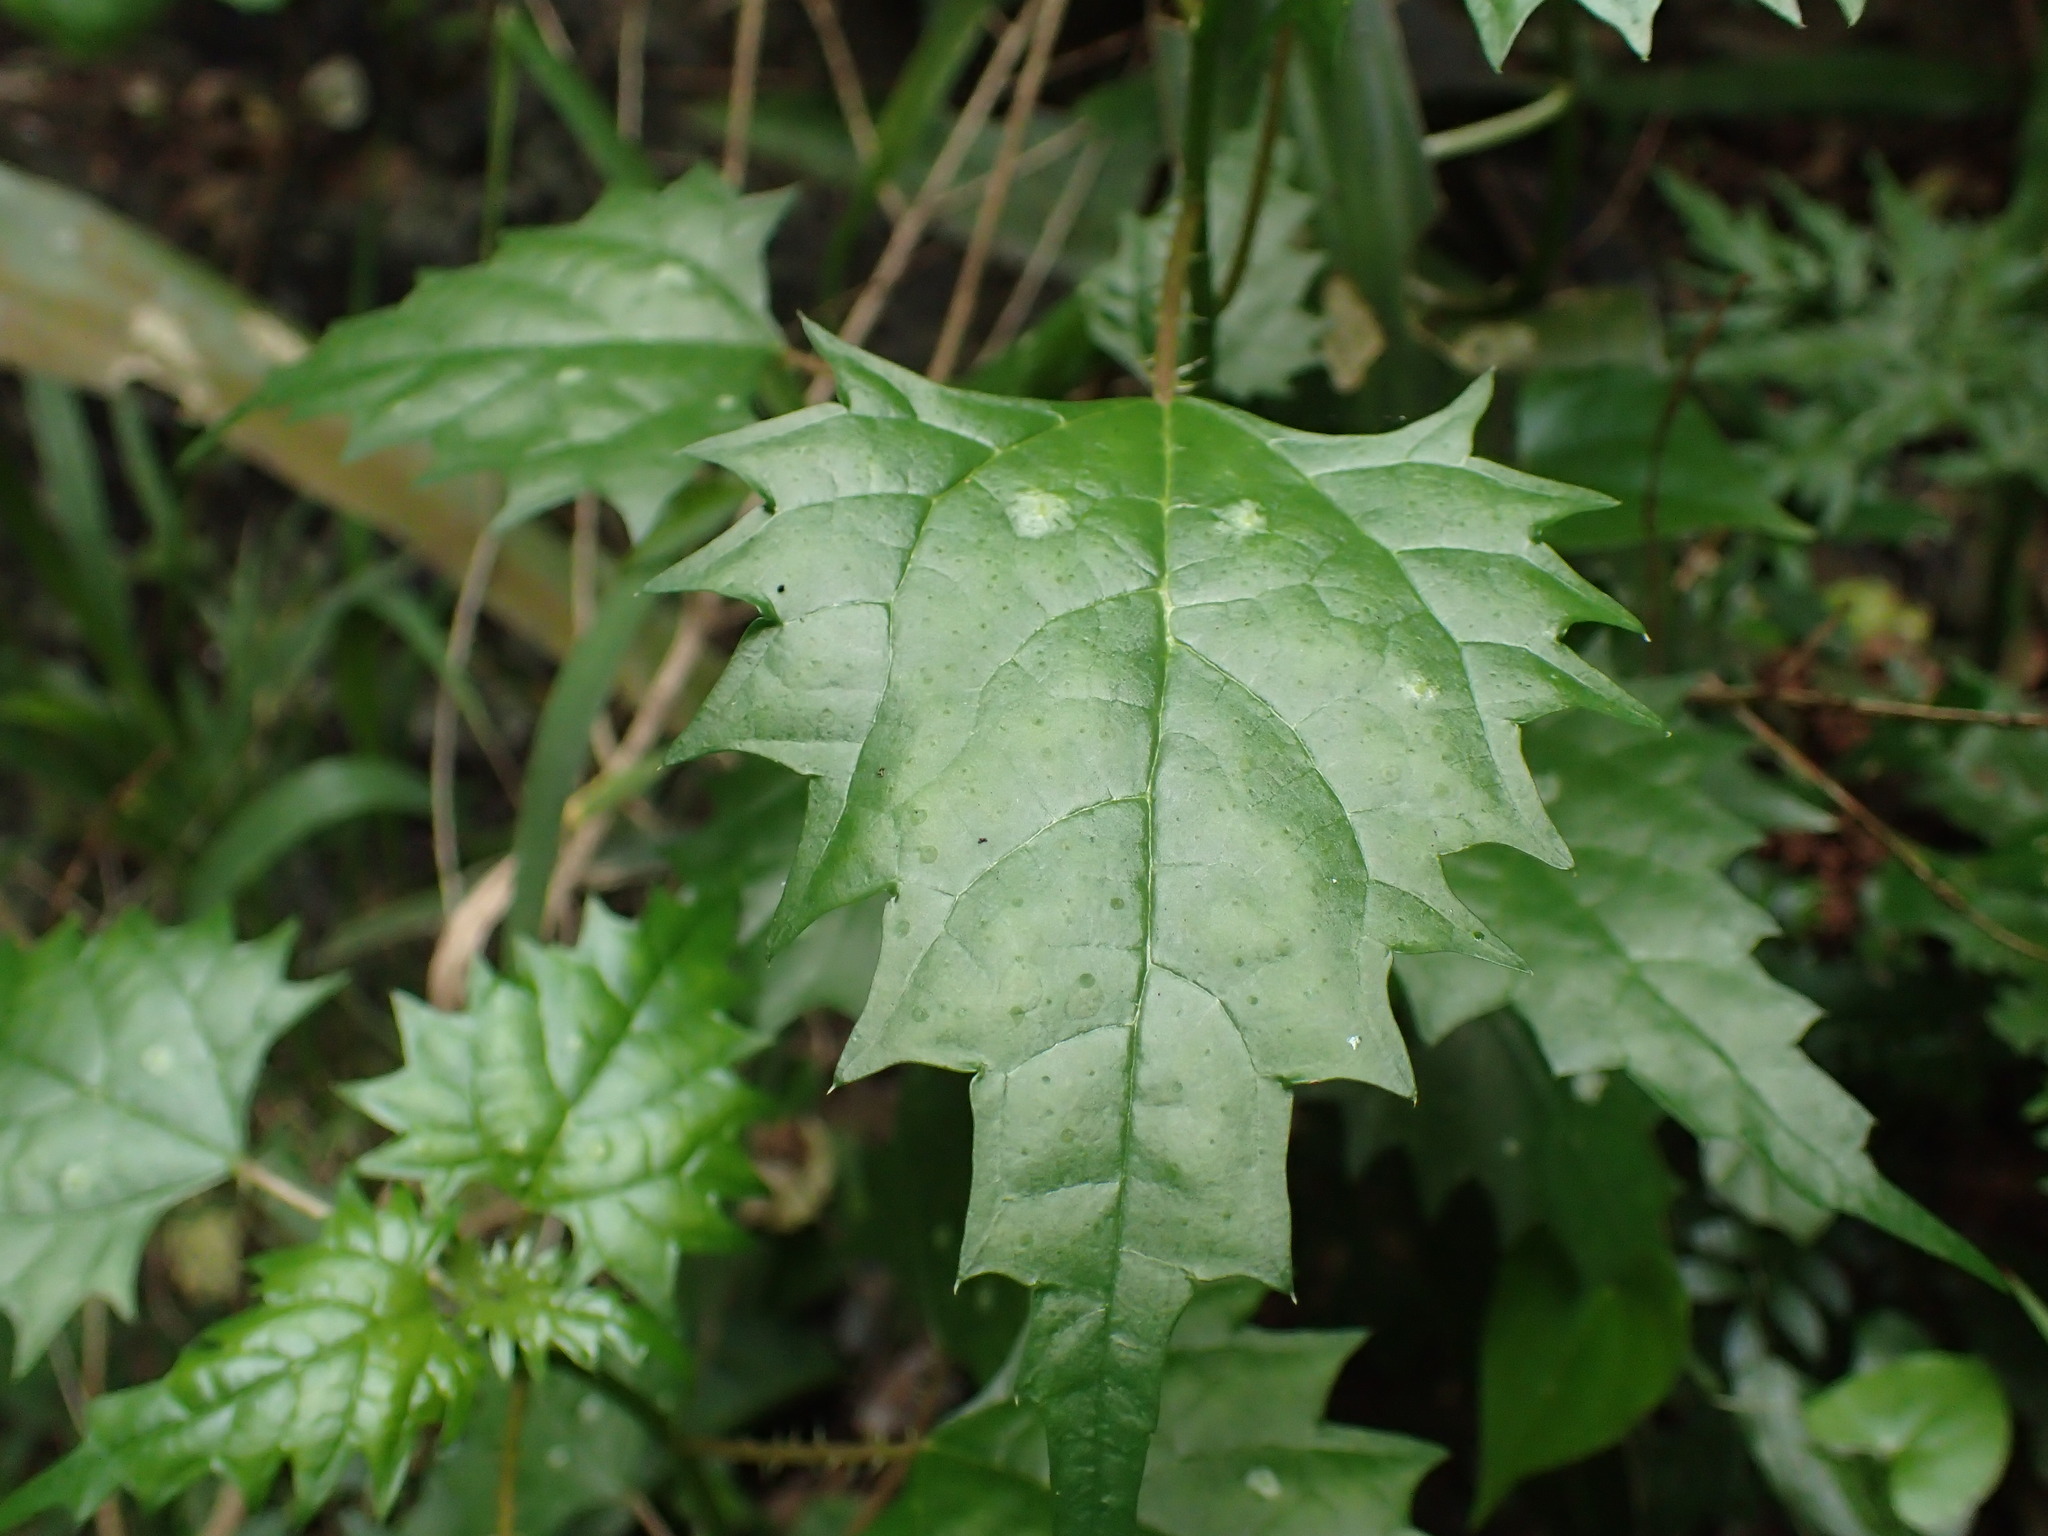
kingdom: Plantae
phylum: Tracheophyta
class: Magnoliopsida
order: Rosales
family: Urticaceae
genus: Laportea
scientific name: Laportea grossa
